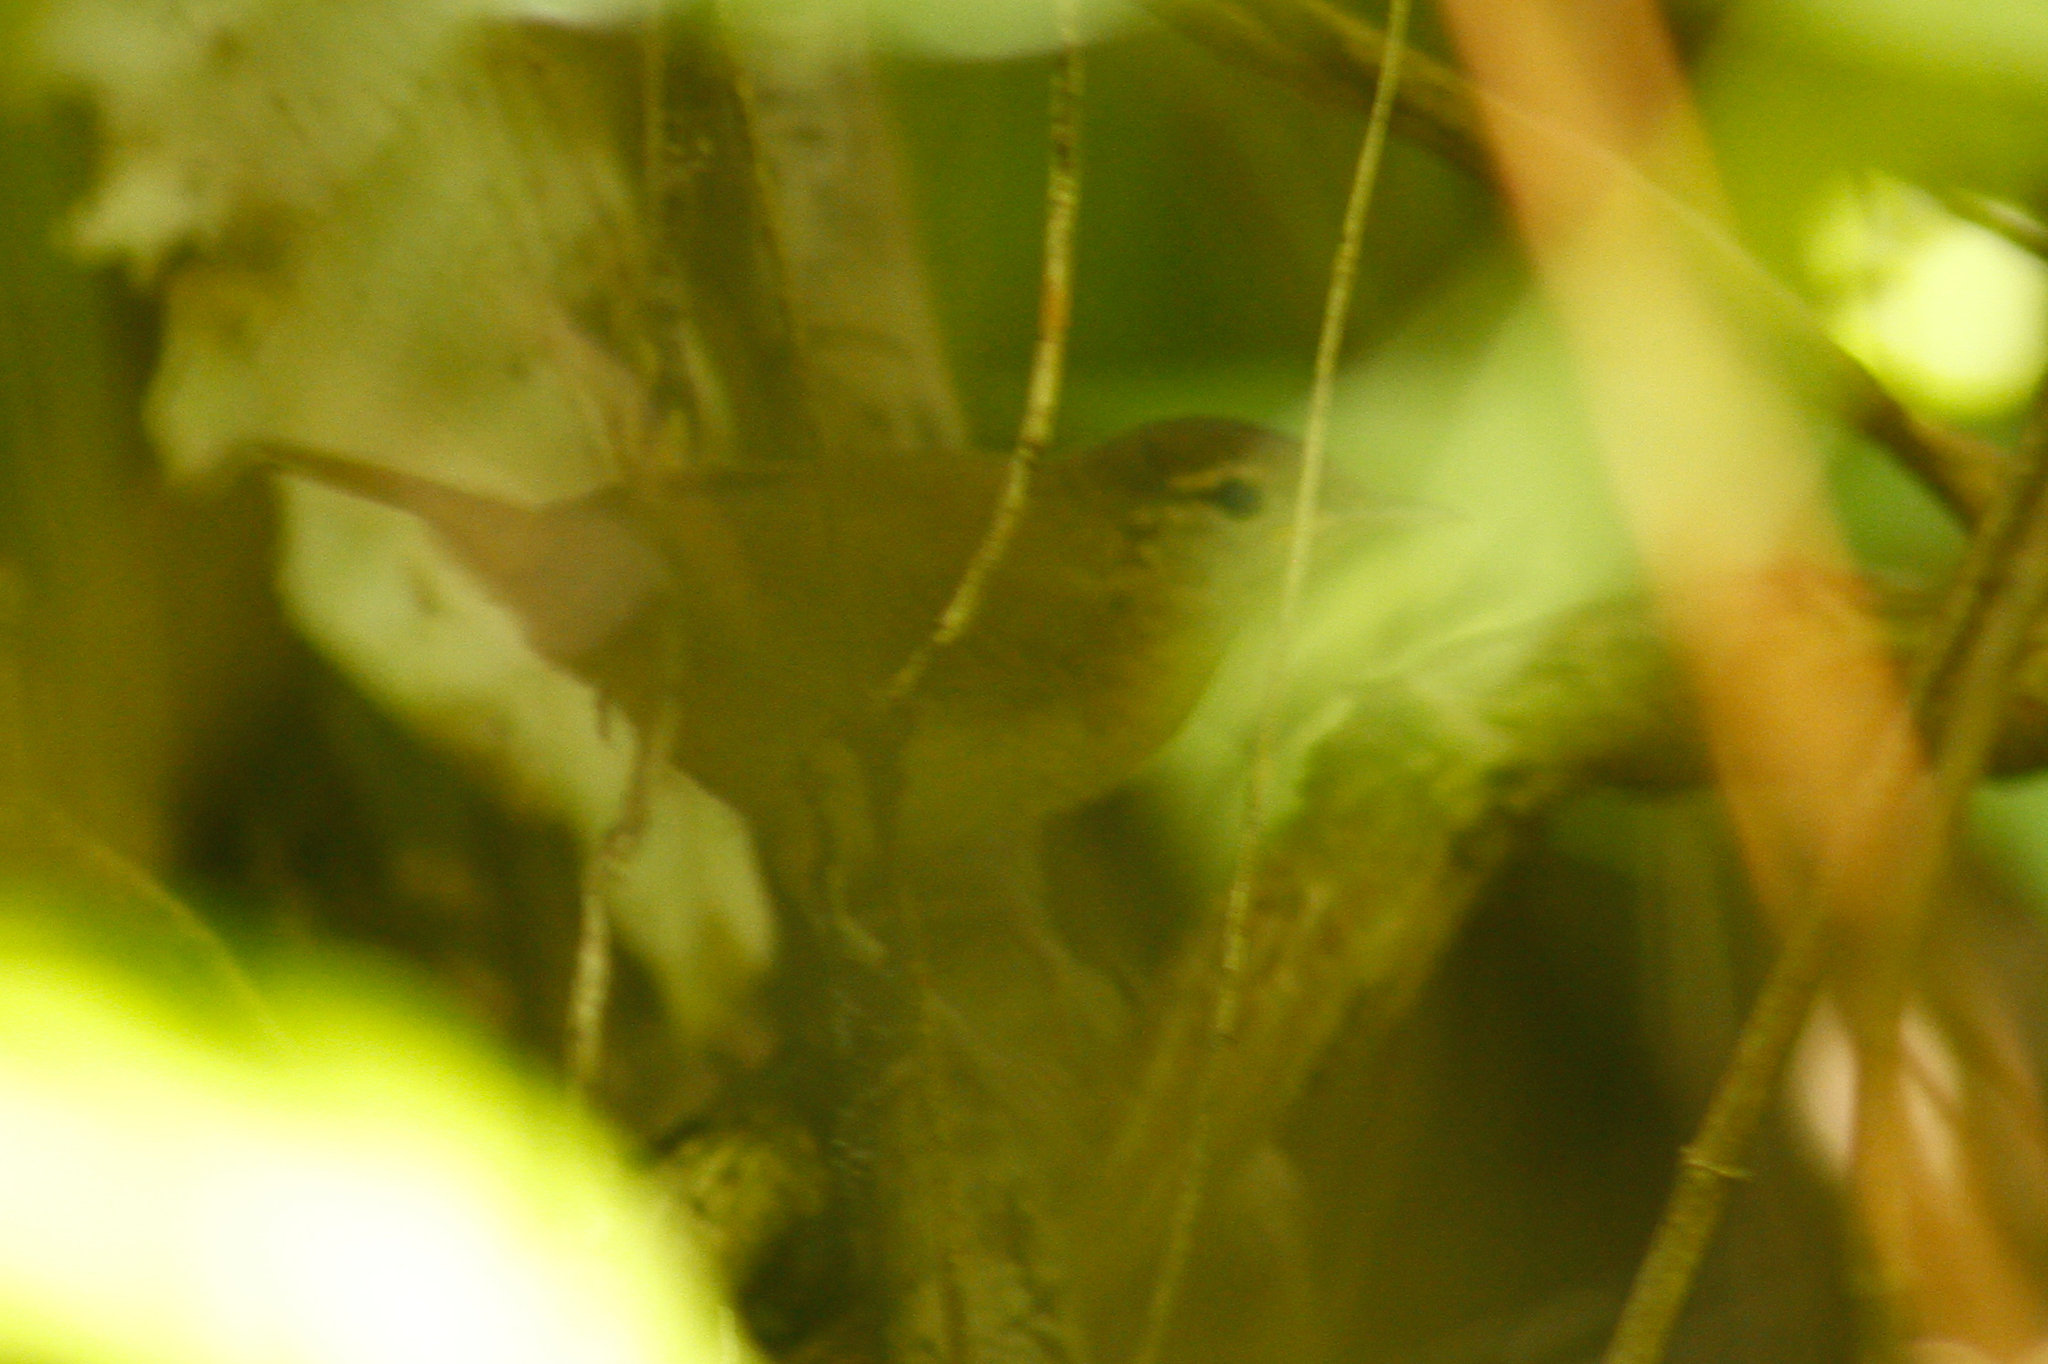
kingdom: Animalia
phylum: Chordata
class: Aves
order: Passeriformes
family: Troglodytidae
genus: Troglodytes
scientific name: Troglodytes aedon
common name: House wren
